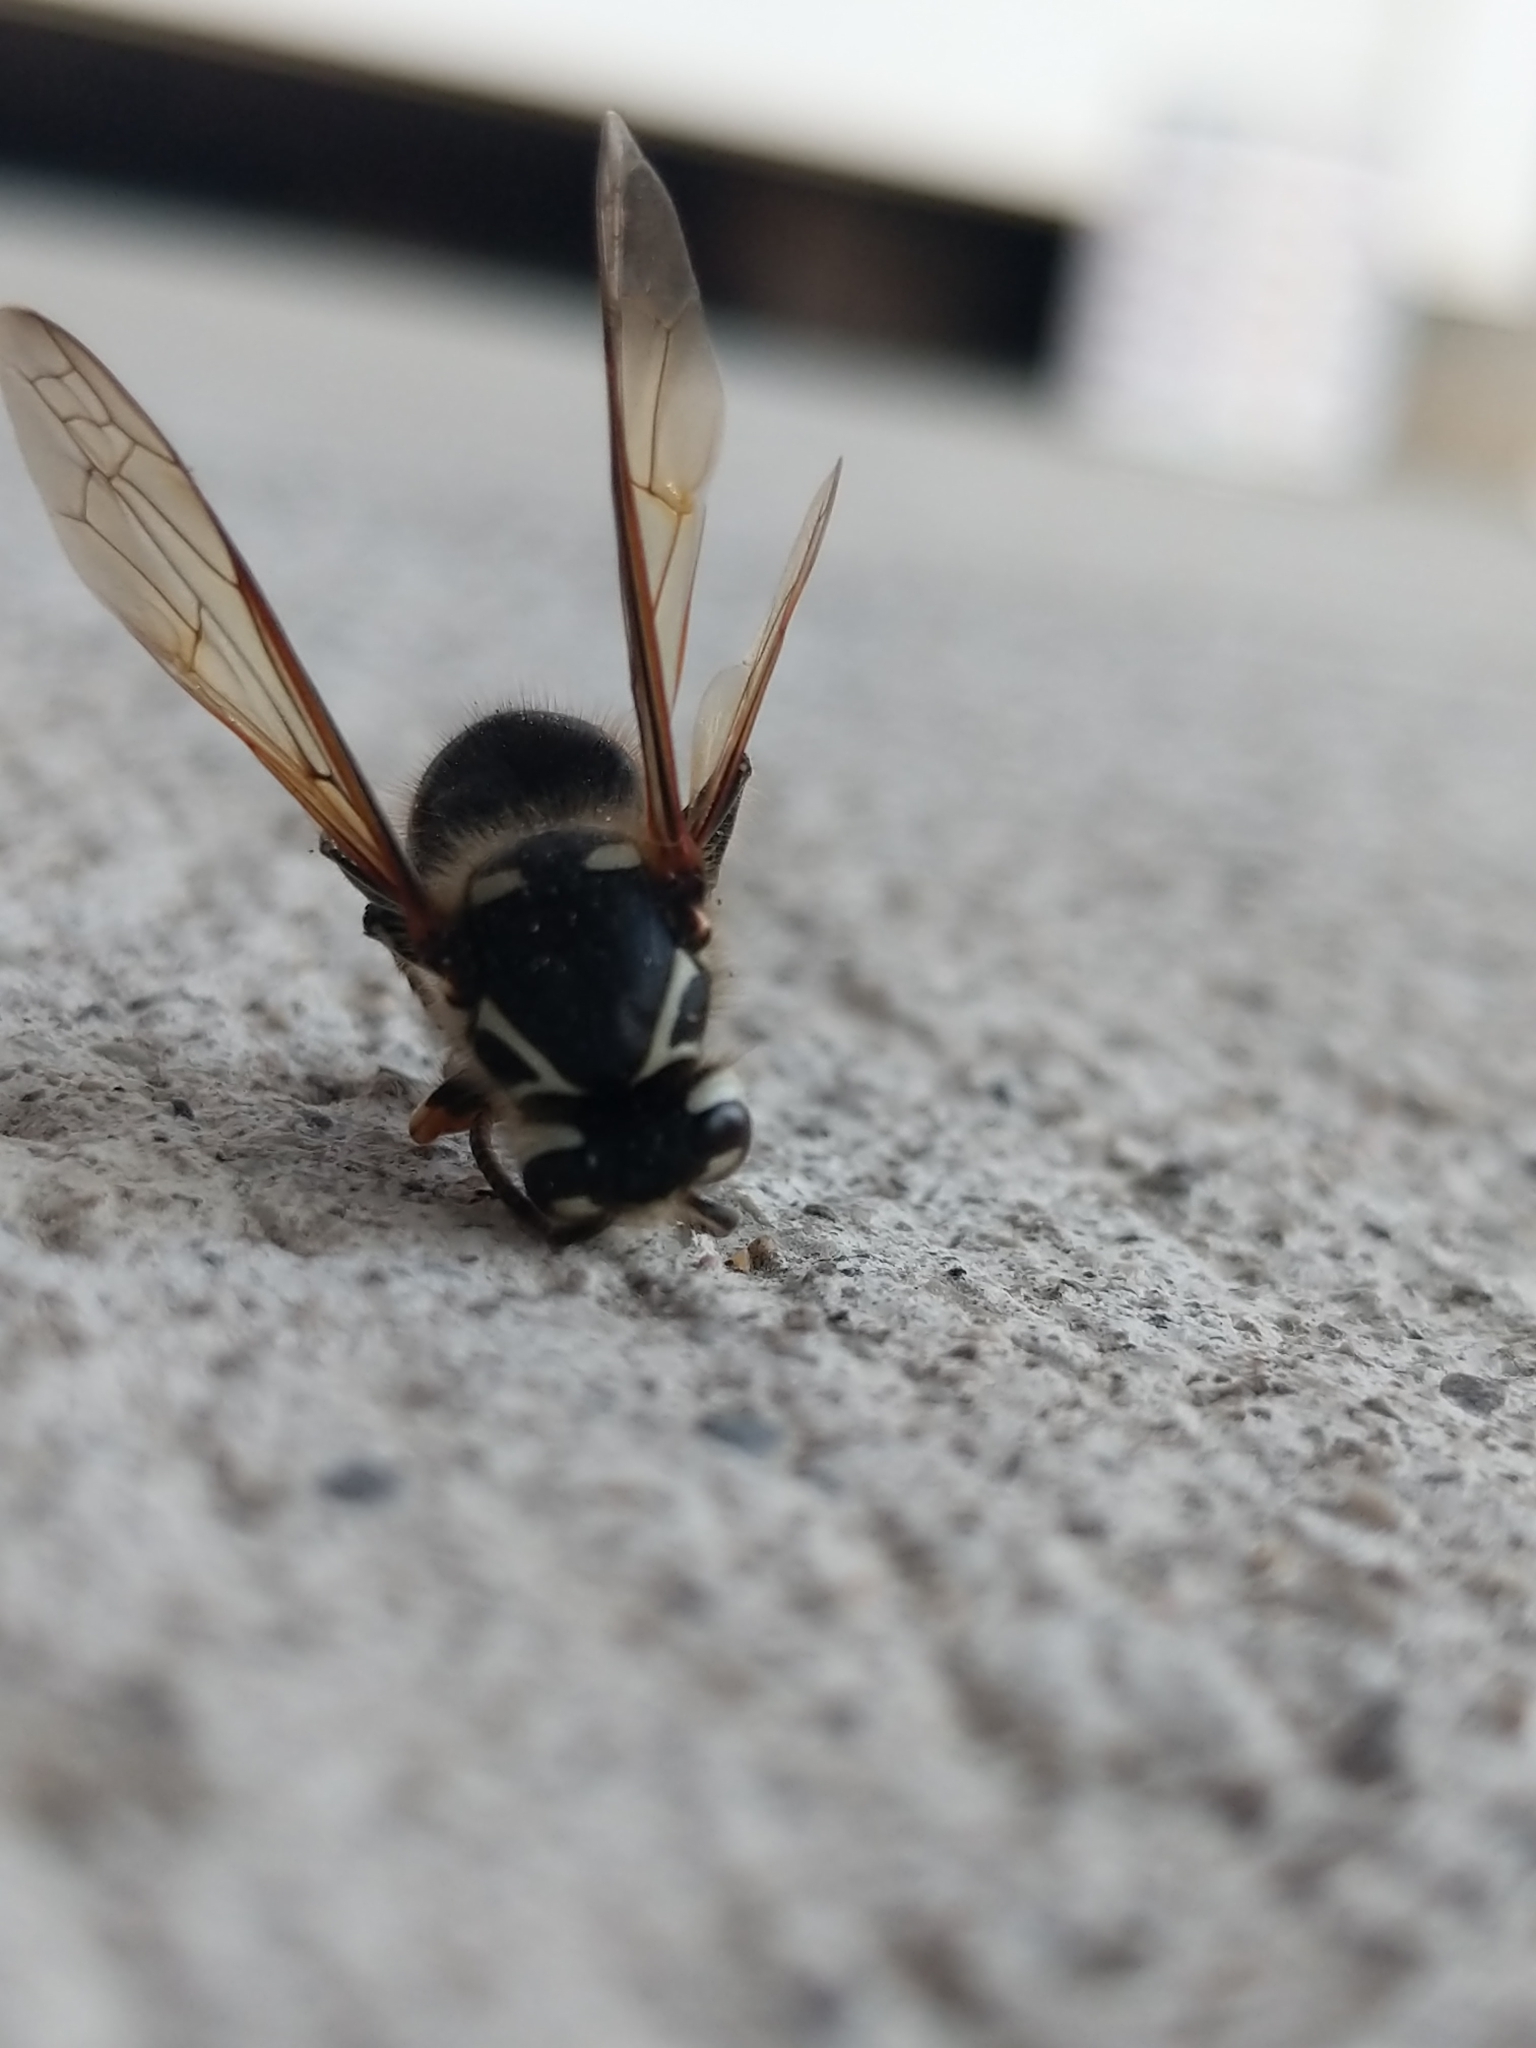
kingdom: Animalia
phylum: Arthropoda
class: Insecta
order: Hymenoptera
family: Vespidae
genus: Dolichovespula
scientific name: Dolichovespula maculata
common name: Bald-faced hornet
